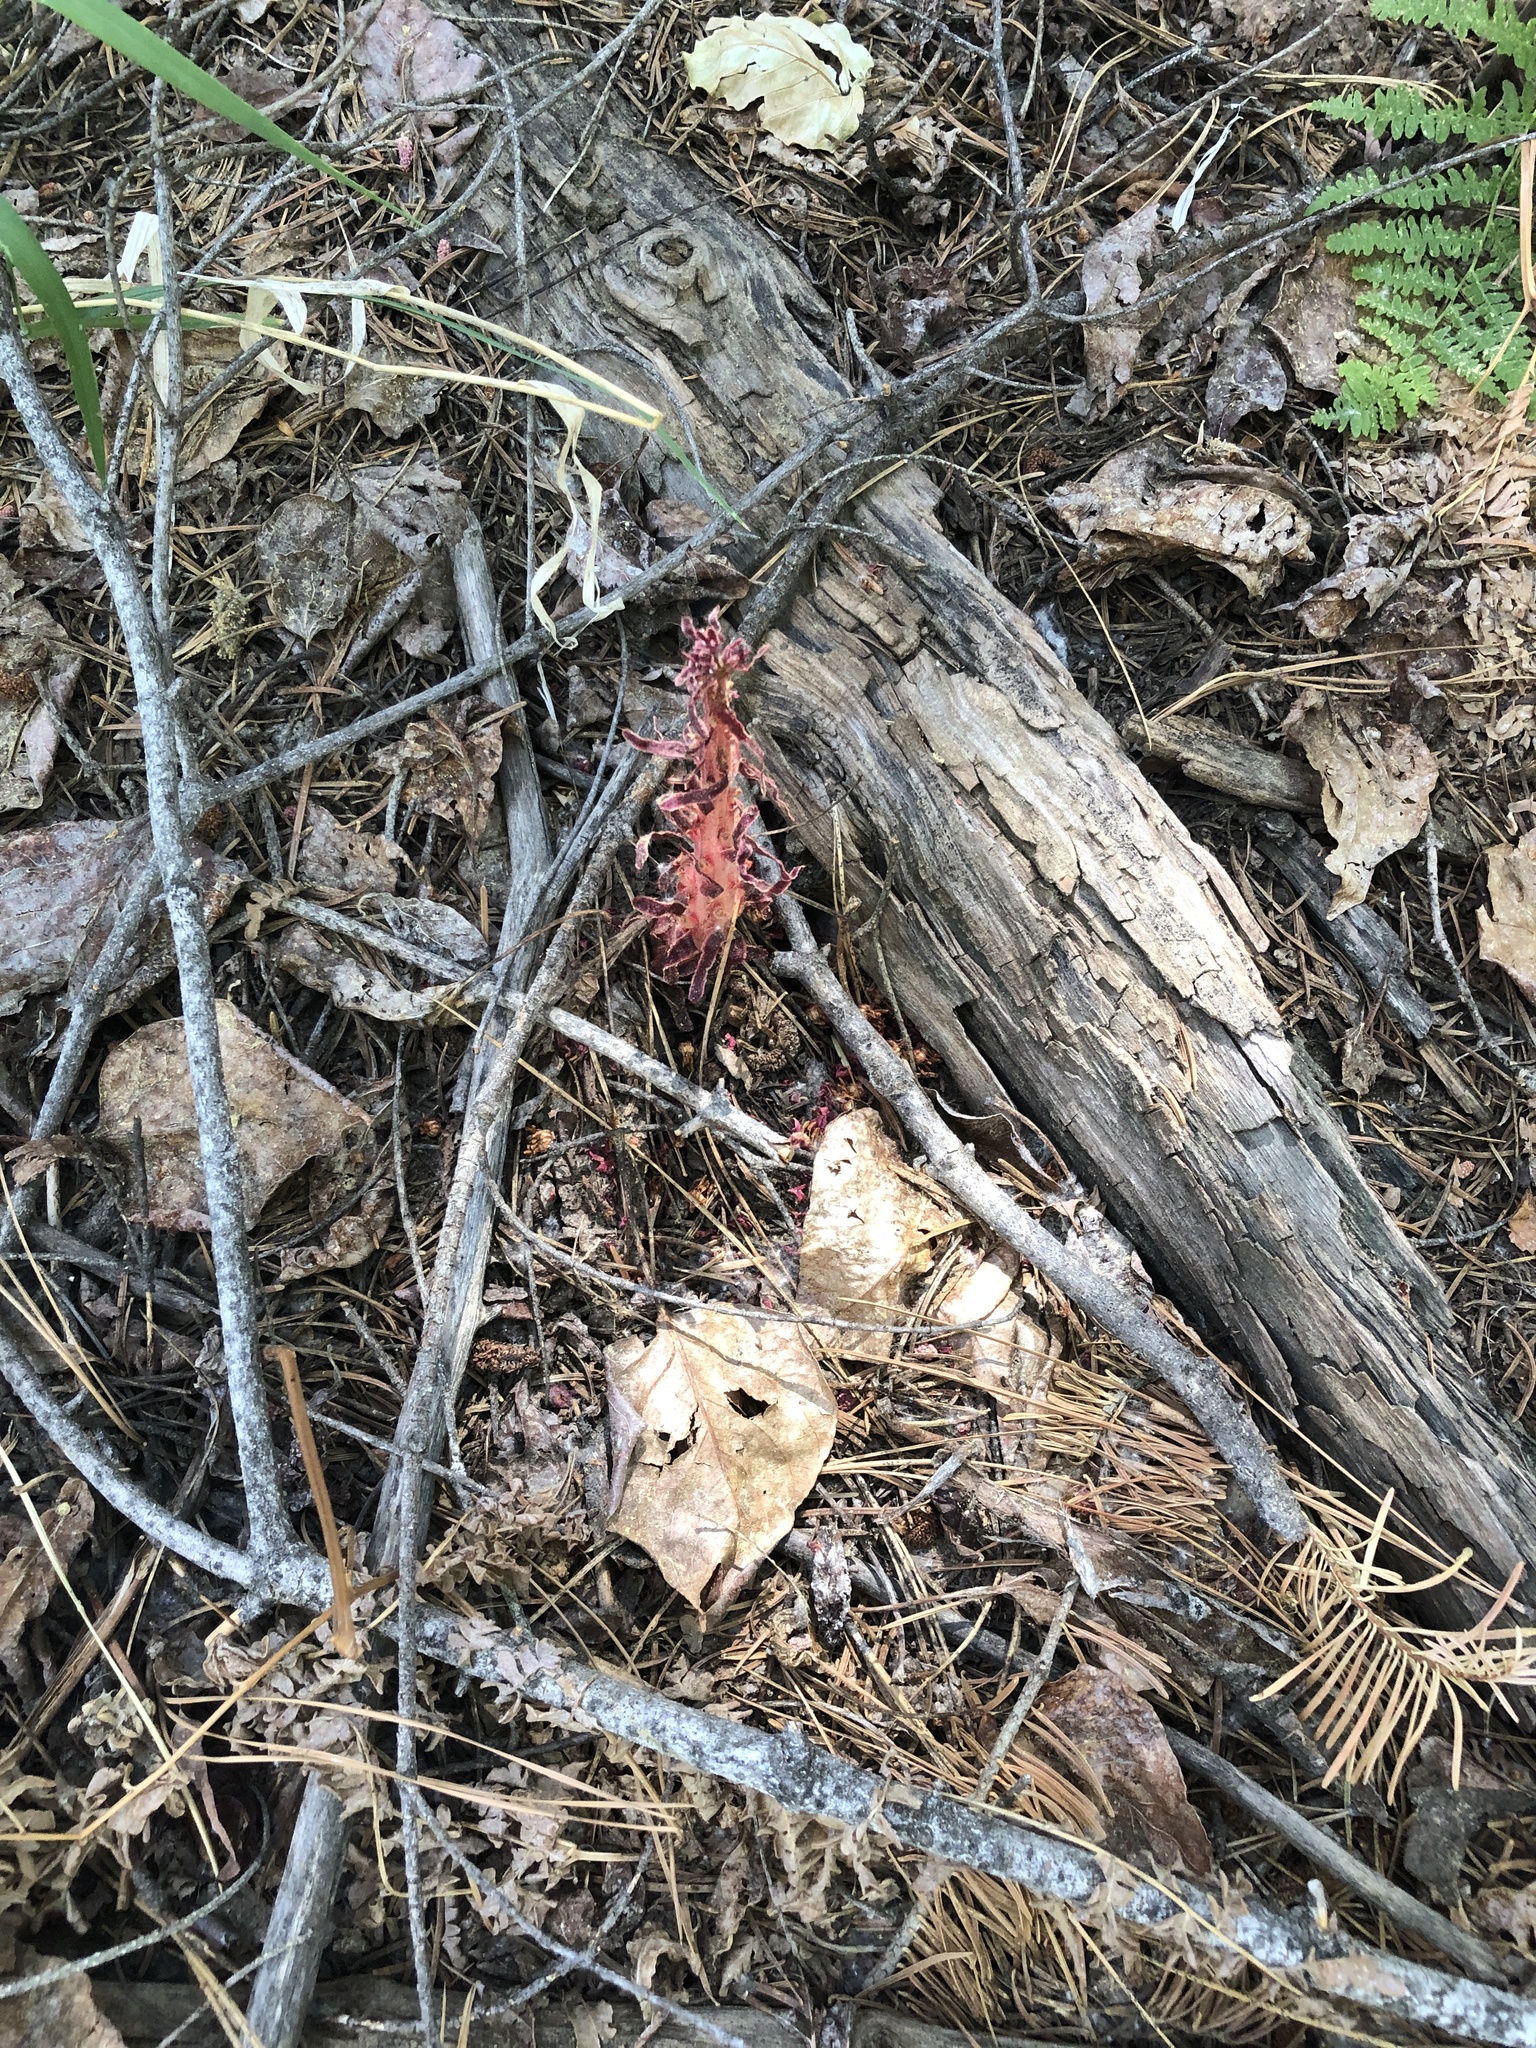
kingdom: Plantae
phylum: Tracheophyta
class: Magnoliopsida
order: Ericales
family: Ericaceae
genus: Sarcodes
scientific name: Sarcodes sanguinea
